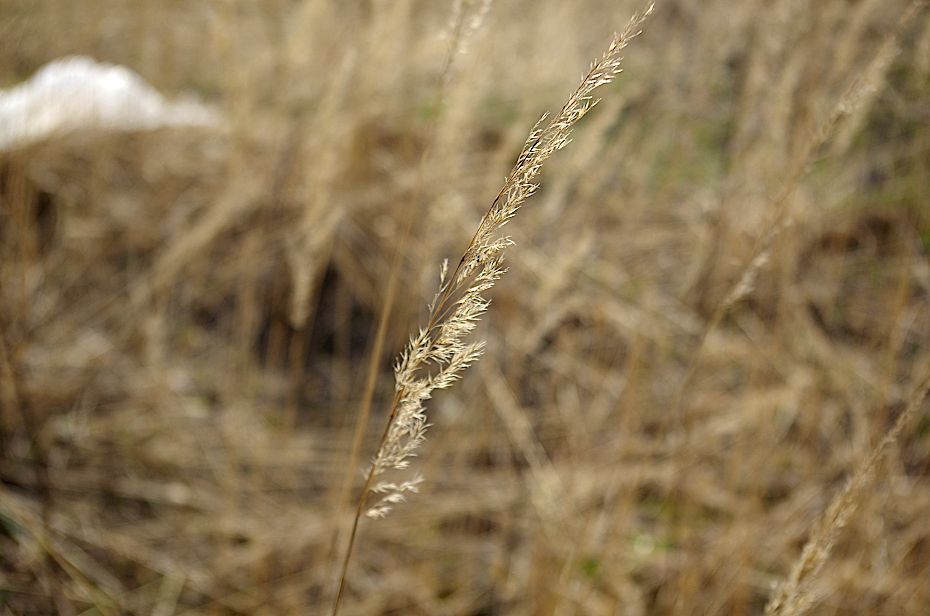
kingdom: Plantae
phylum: Tracheophyta
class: Liliopsida
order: Poales
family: Poaceae
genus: Calamagrostis
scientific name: Calamagrostis epigejos
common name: Wood small-reed
